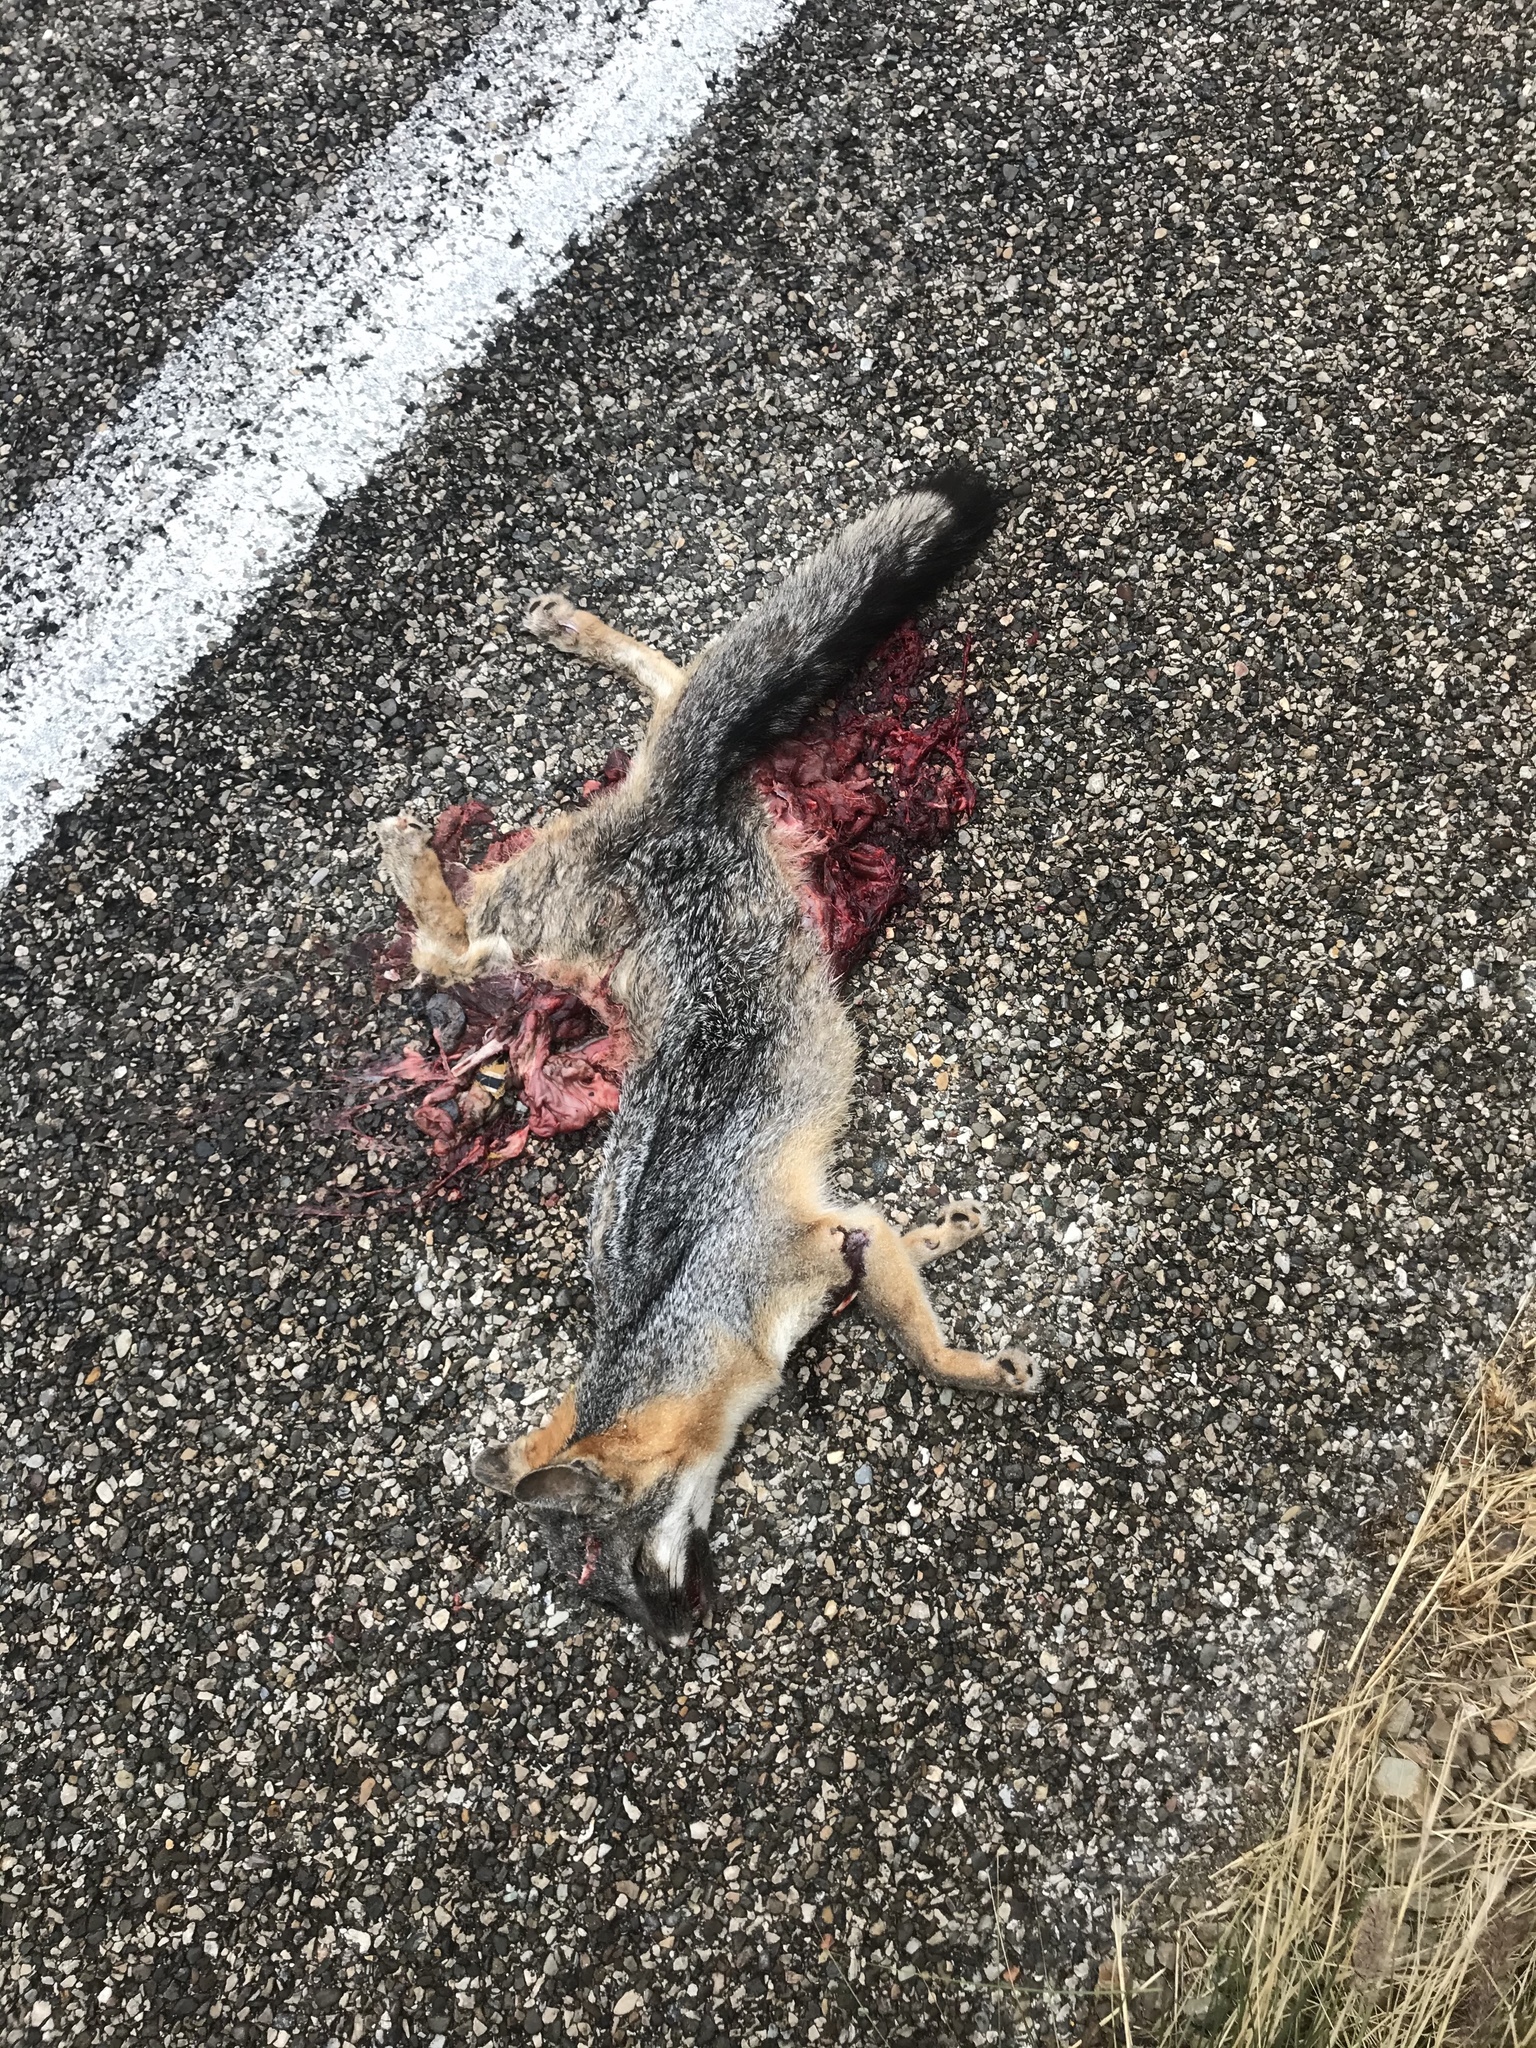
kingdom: Animalia
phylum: Chordata
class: Mammalia
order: Carnivora
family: Canidae
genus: Urocyon
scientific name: Urocyon cinereoargenteus
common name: Gray fox
